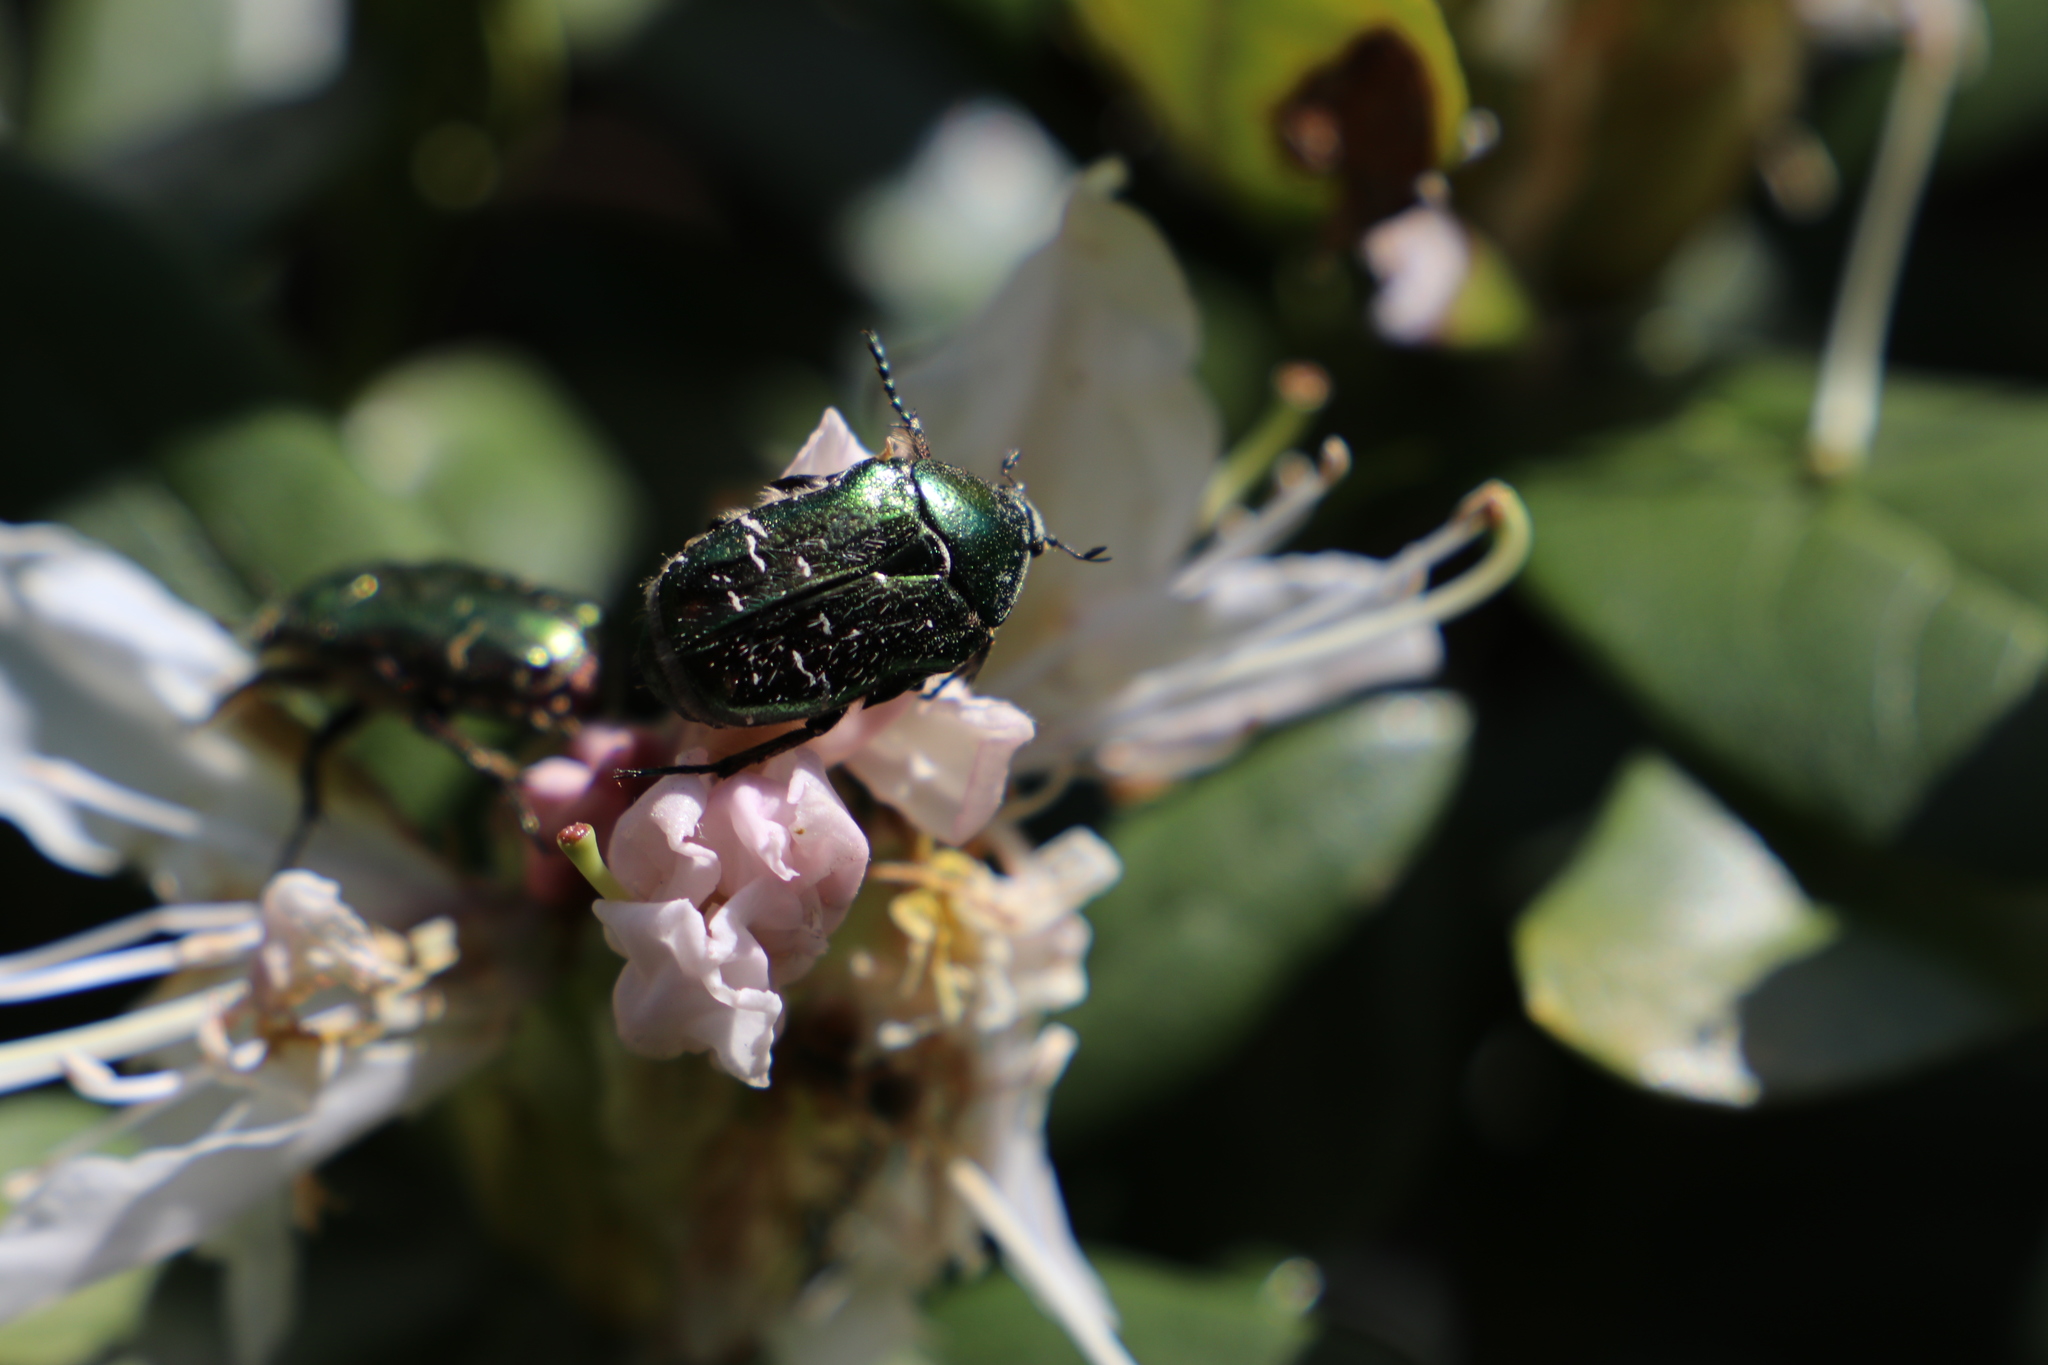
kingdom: Animalia
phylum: Arthropoda
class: Insecta
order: Coleoptera
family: Scarabaeidae
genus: Cetonia
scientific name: Cetonia aurata
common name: Rose chafer
